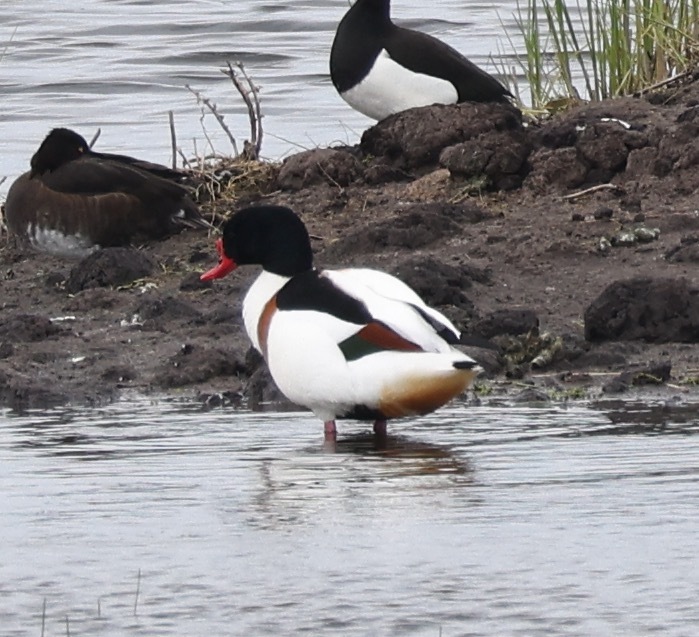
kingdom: Animalia
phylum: Chordata
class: Aves
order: Anseriformes
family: Anatidae
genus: Tadorna
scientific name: Tadorna tadorna
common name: Common shelduck
